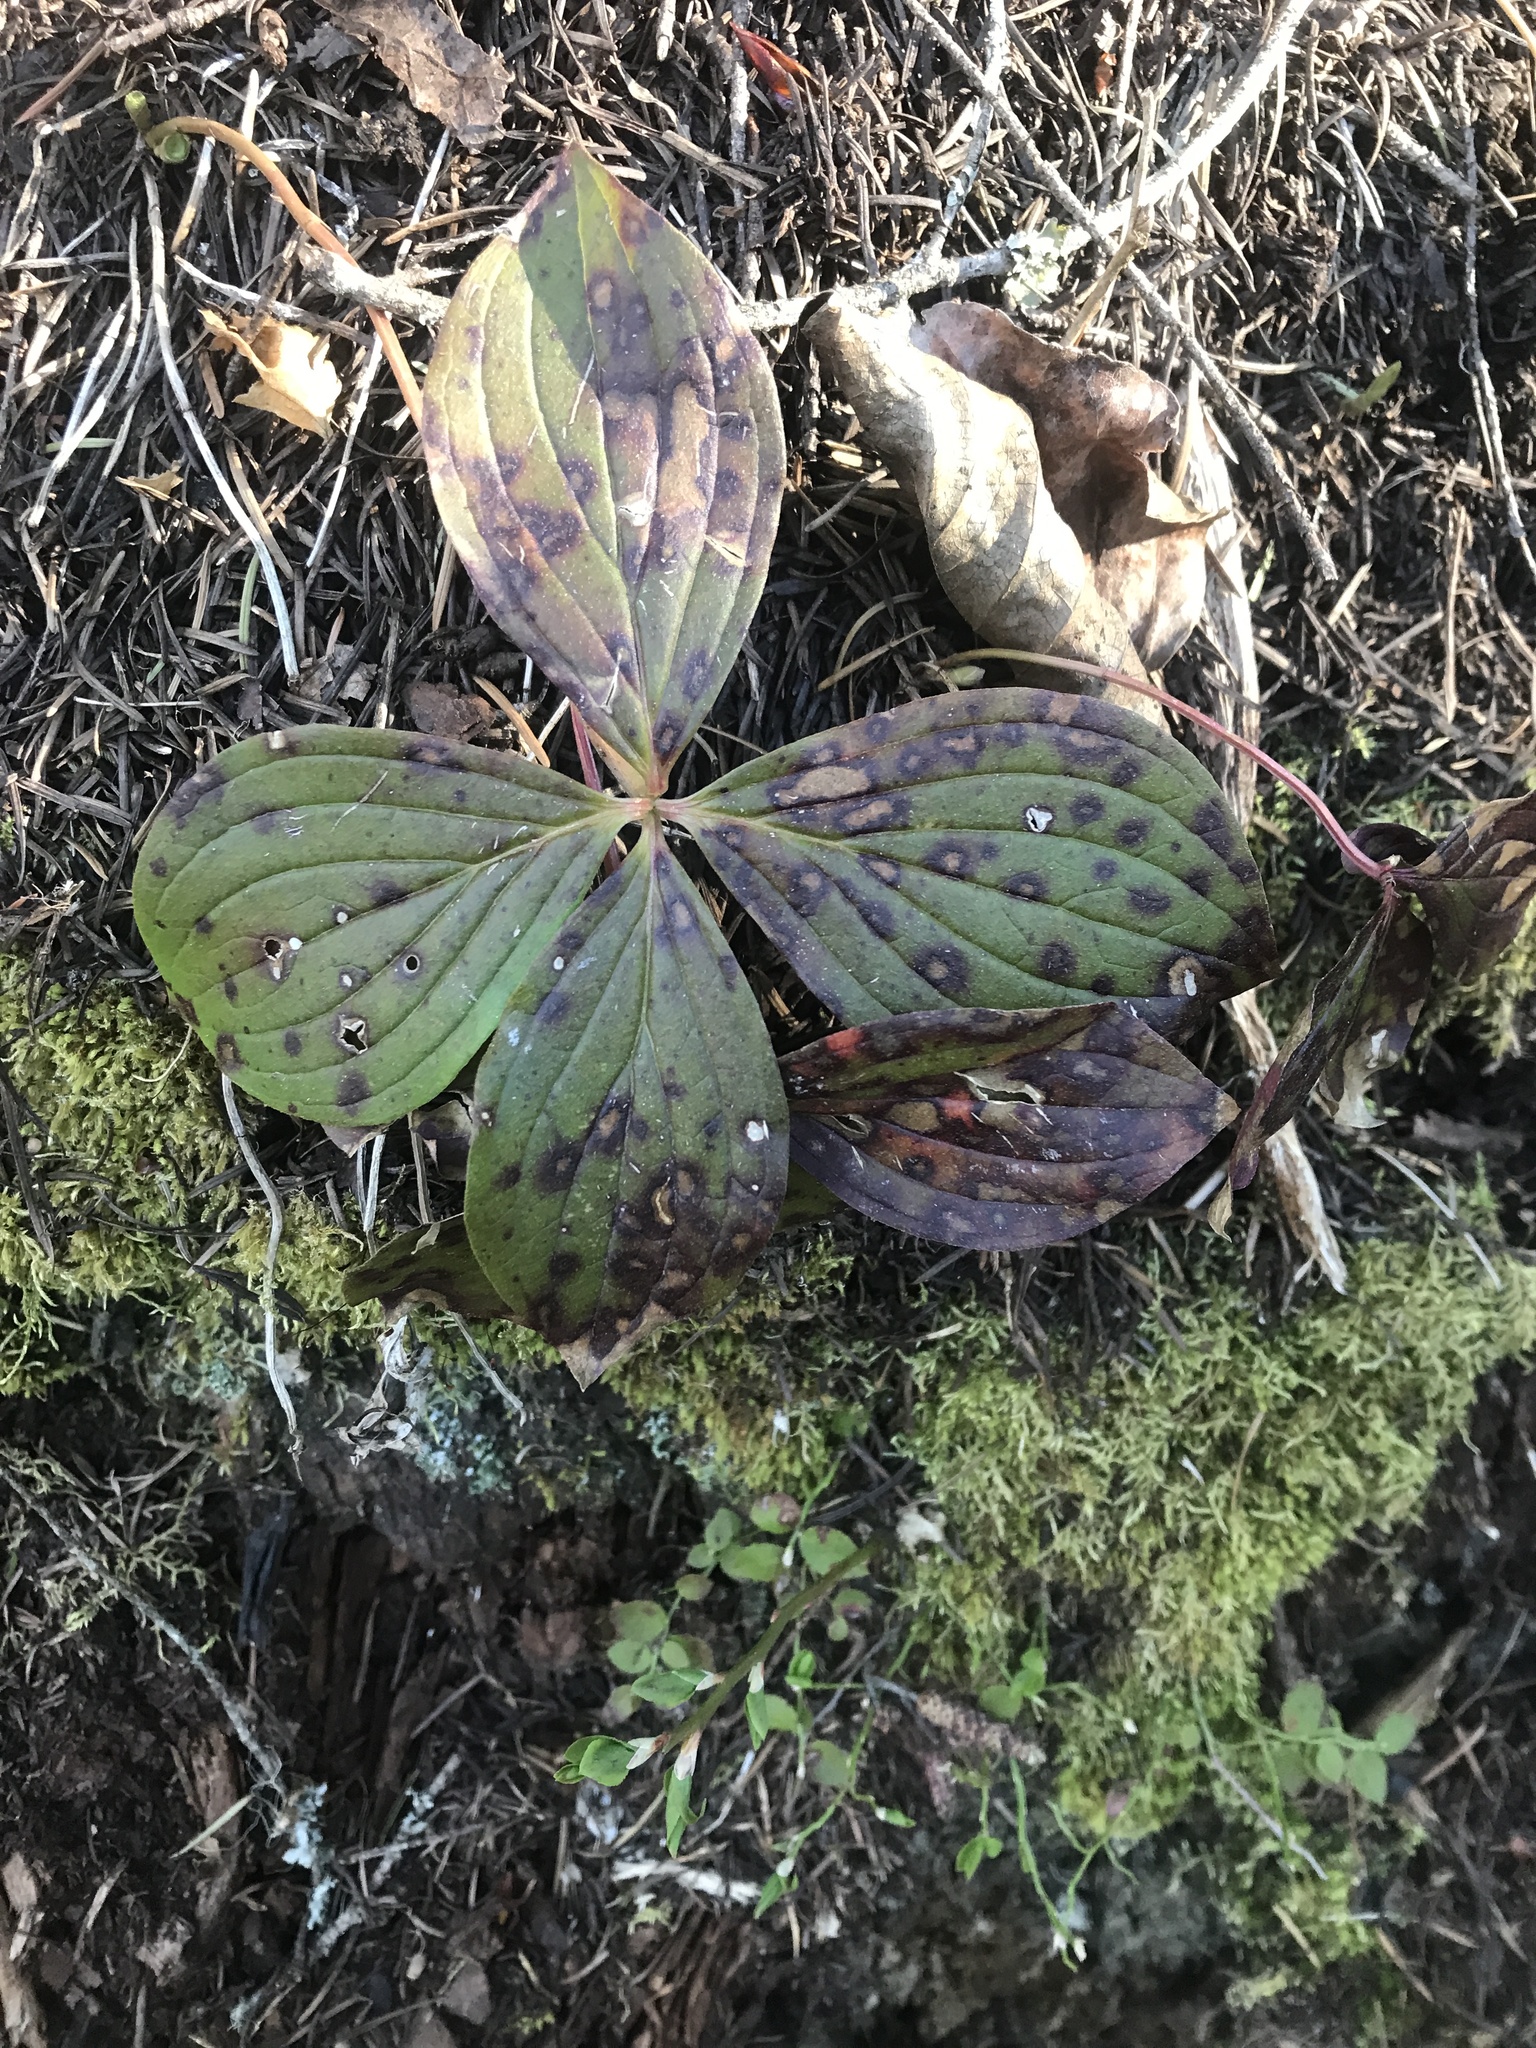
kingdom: Plantae
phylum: Tracheophyta
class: Magnoliopsida
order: Cornales
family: Cornaceae
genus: Cornus
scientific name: Cornus unalaschkensis
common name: Alaska bunchberry
